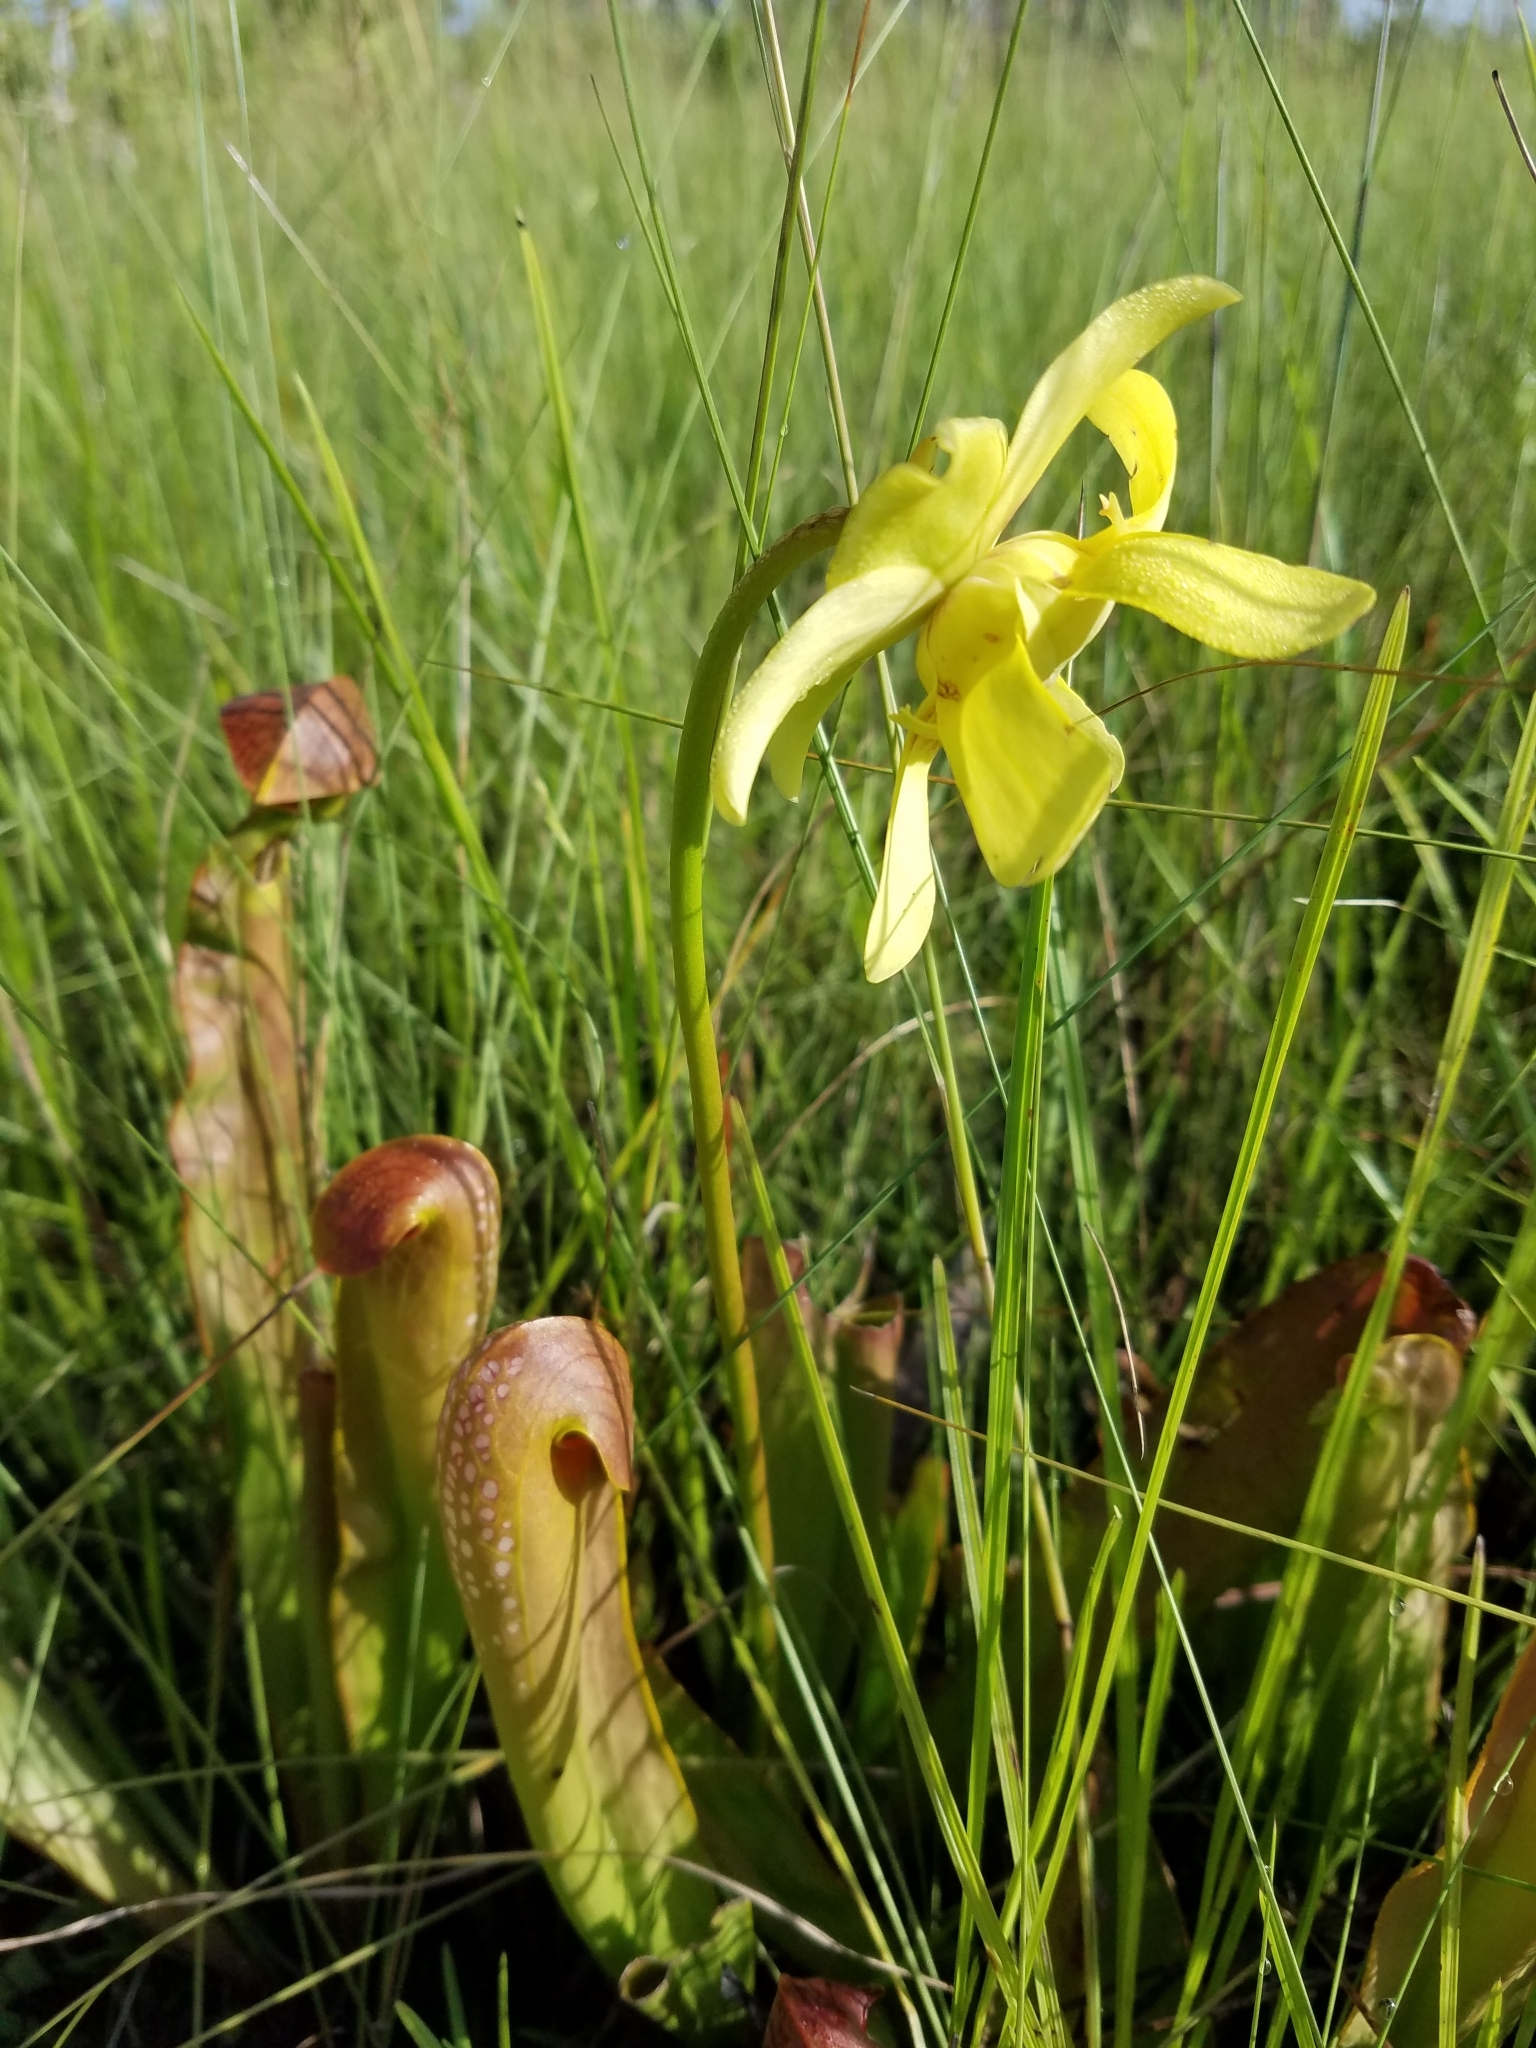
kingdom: Plantae
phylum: Tracheophyta
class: Magnoliopsida
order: Ericales
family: Sarraceniaceae
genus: Sarracenia
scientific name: Sarracenia minor
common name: Rainhat-trumpet
